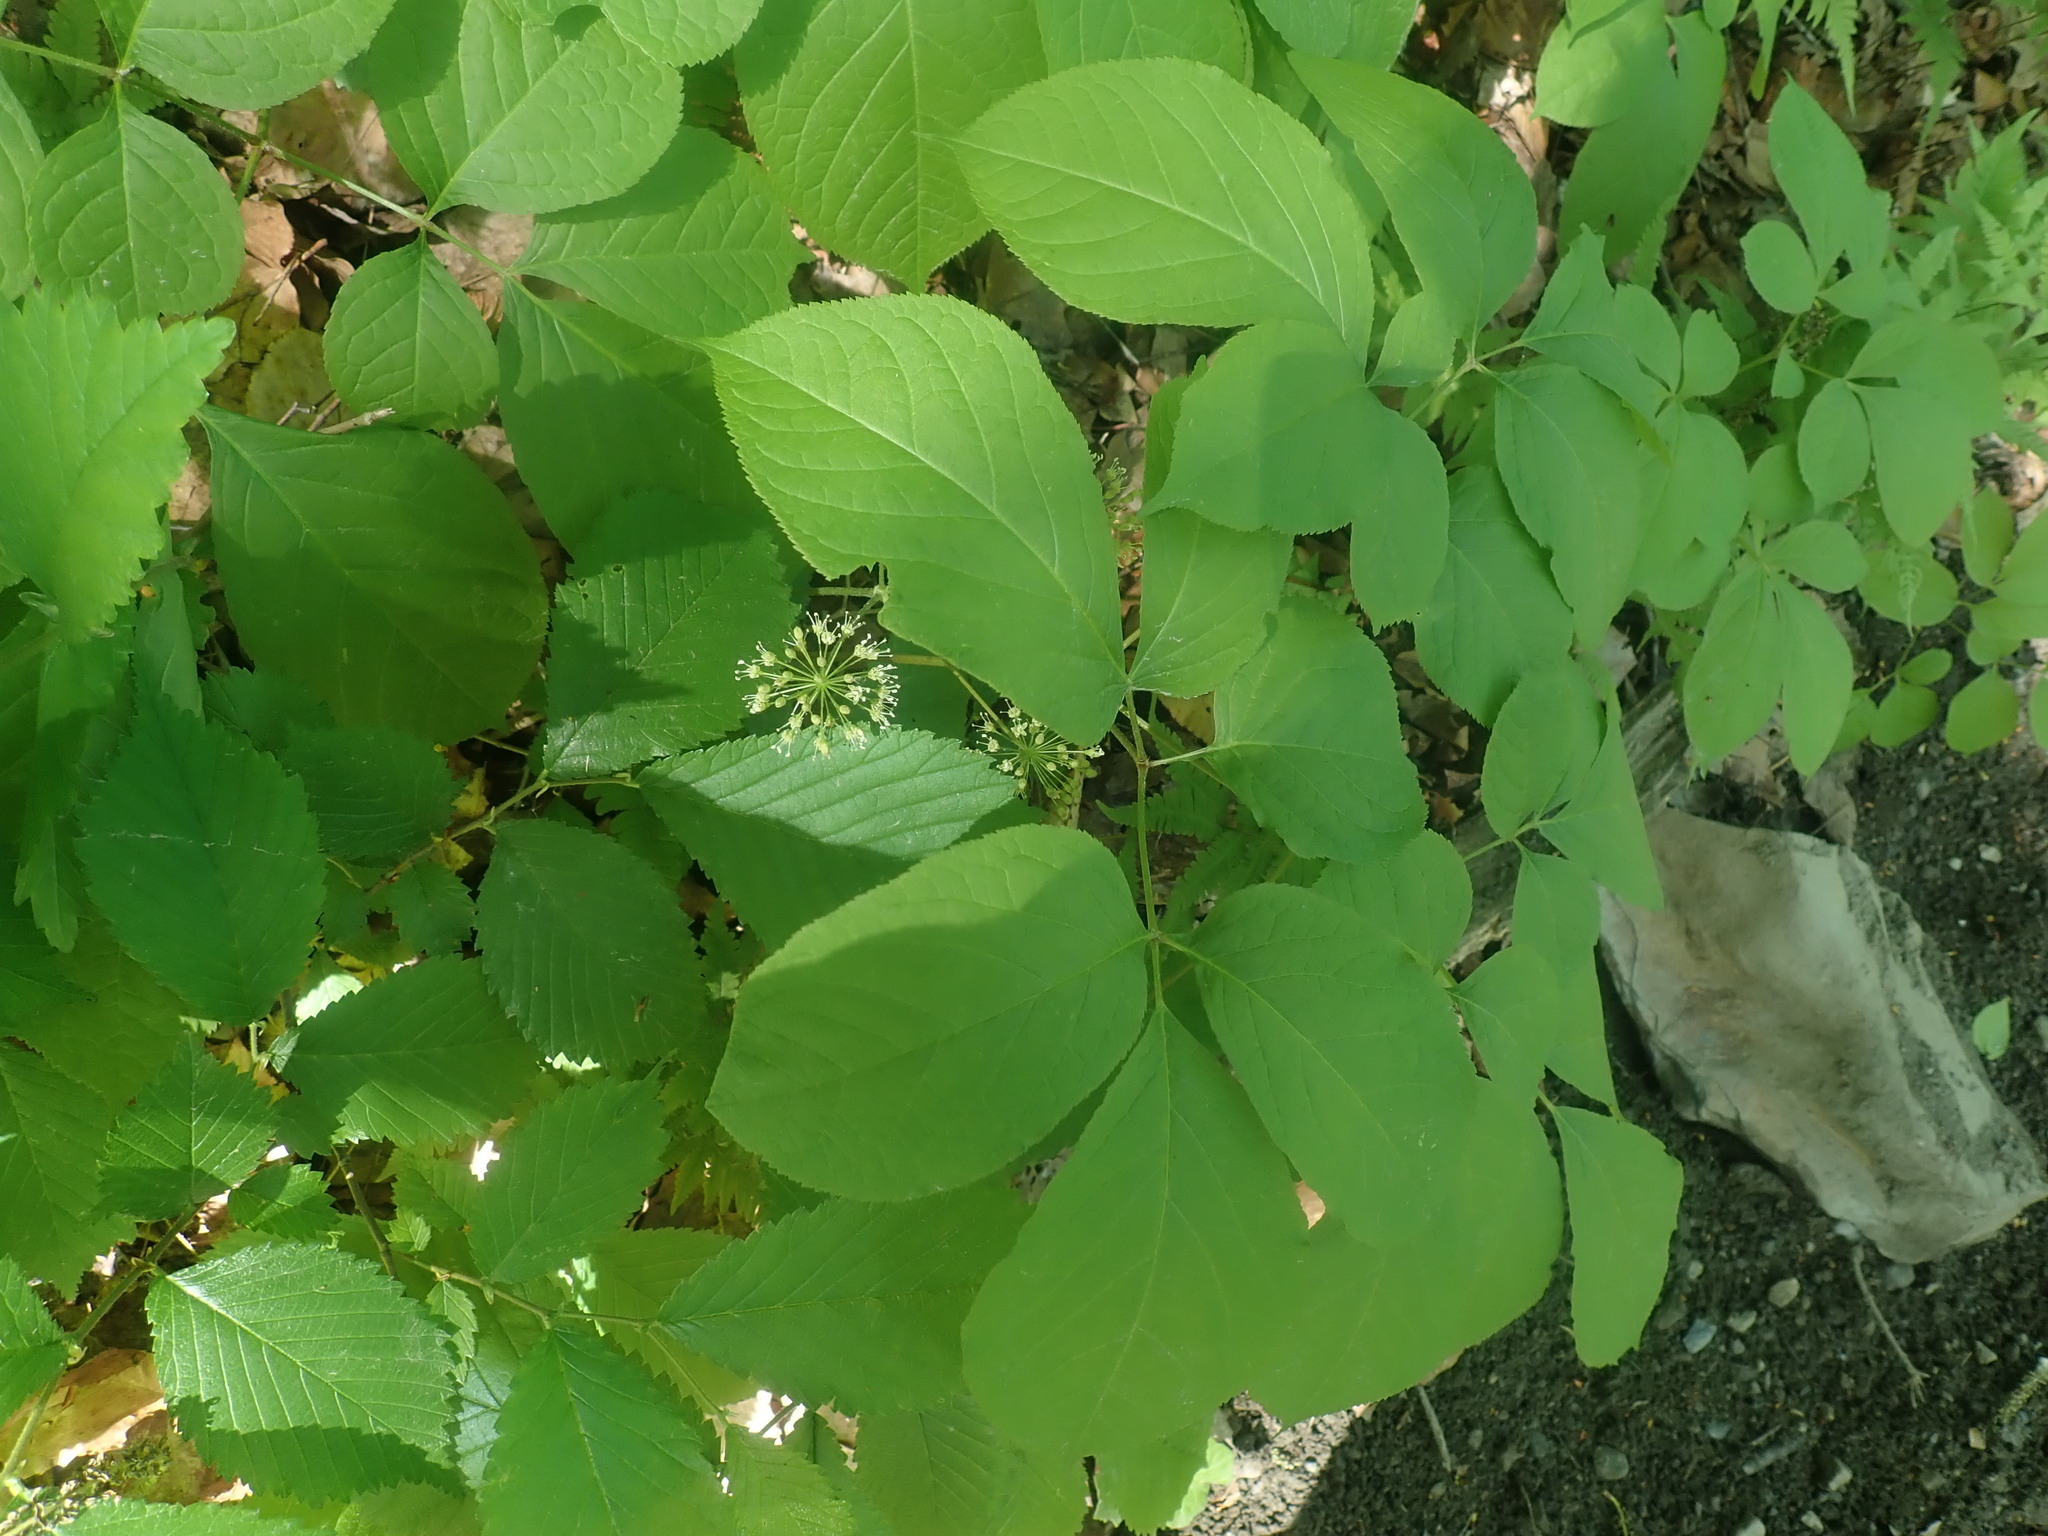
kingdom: Plantae
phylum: Tracheophyta
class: Magnoliopsida
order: Apiales
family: Araliaceae
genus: Aralia
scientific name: Aralia nudicaulis
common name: Wild sarsaparilla
